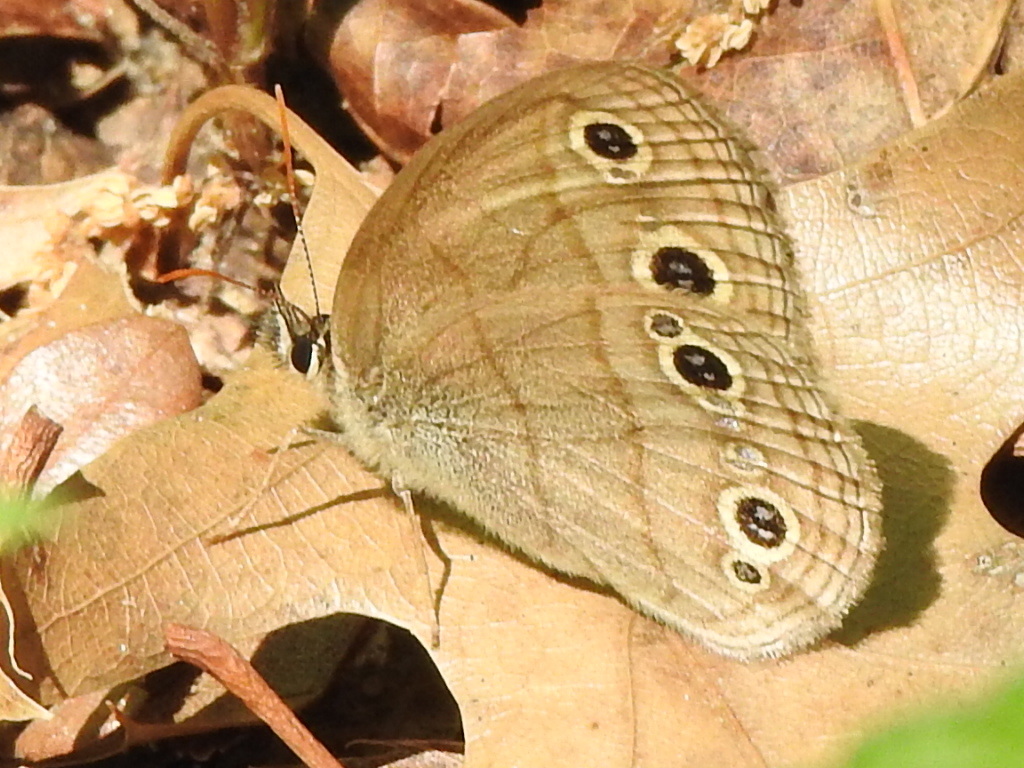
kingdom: Animalia
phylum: Arthropoda
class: Insecta
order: Lepidoptera
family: Nymphalidae
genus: Euptychia
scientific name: Euptychia cymela
